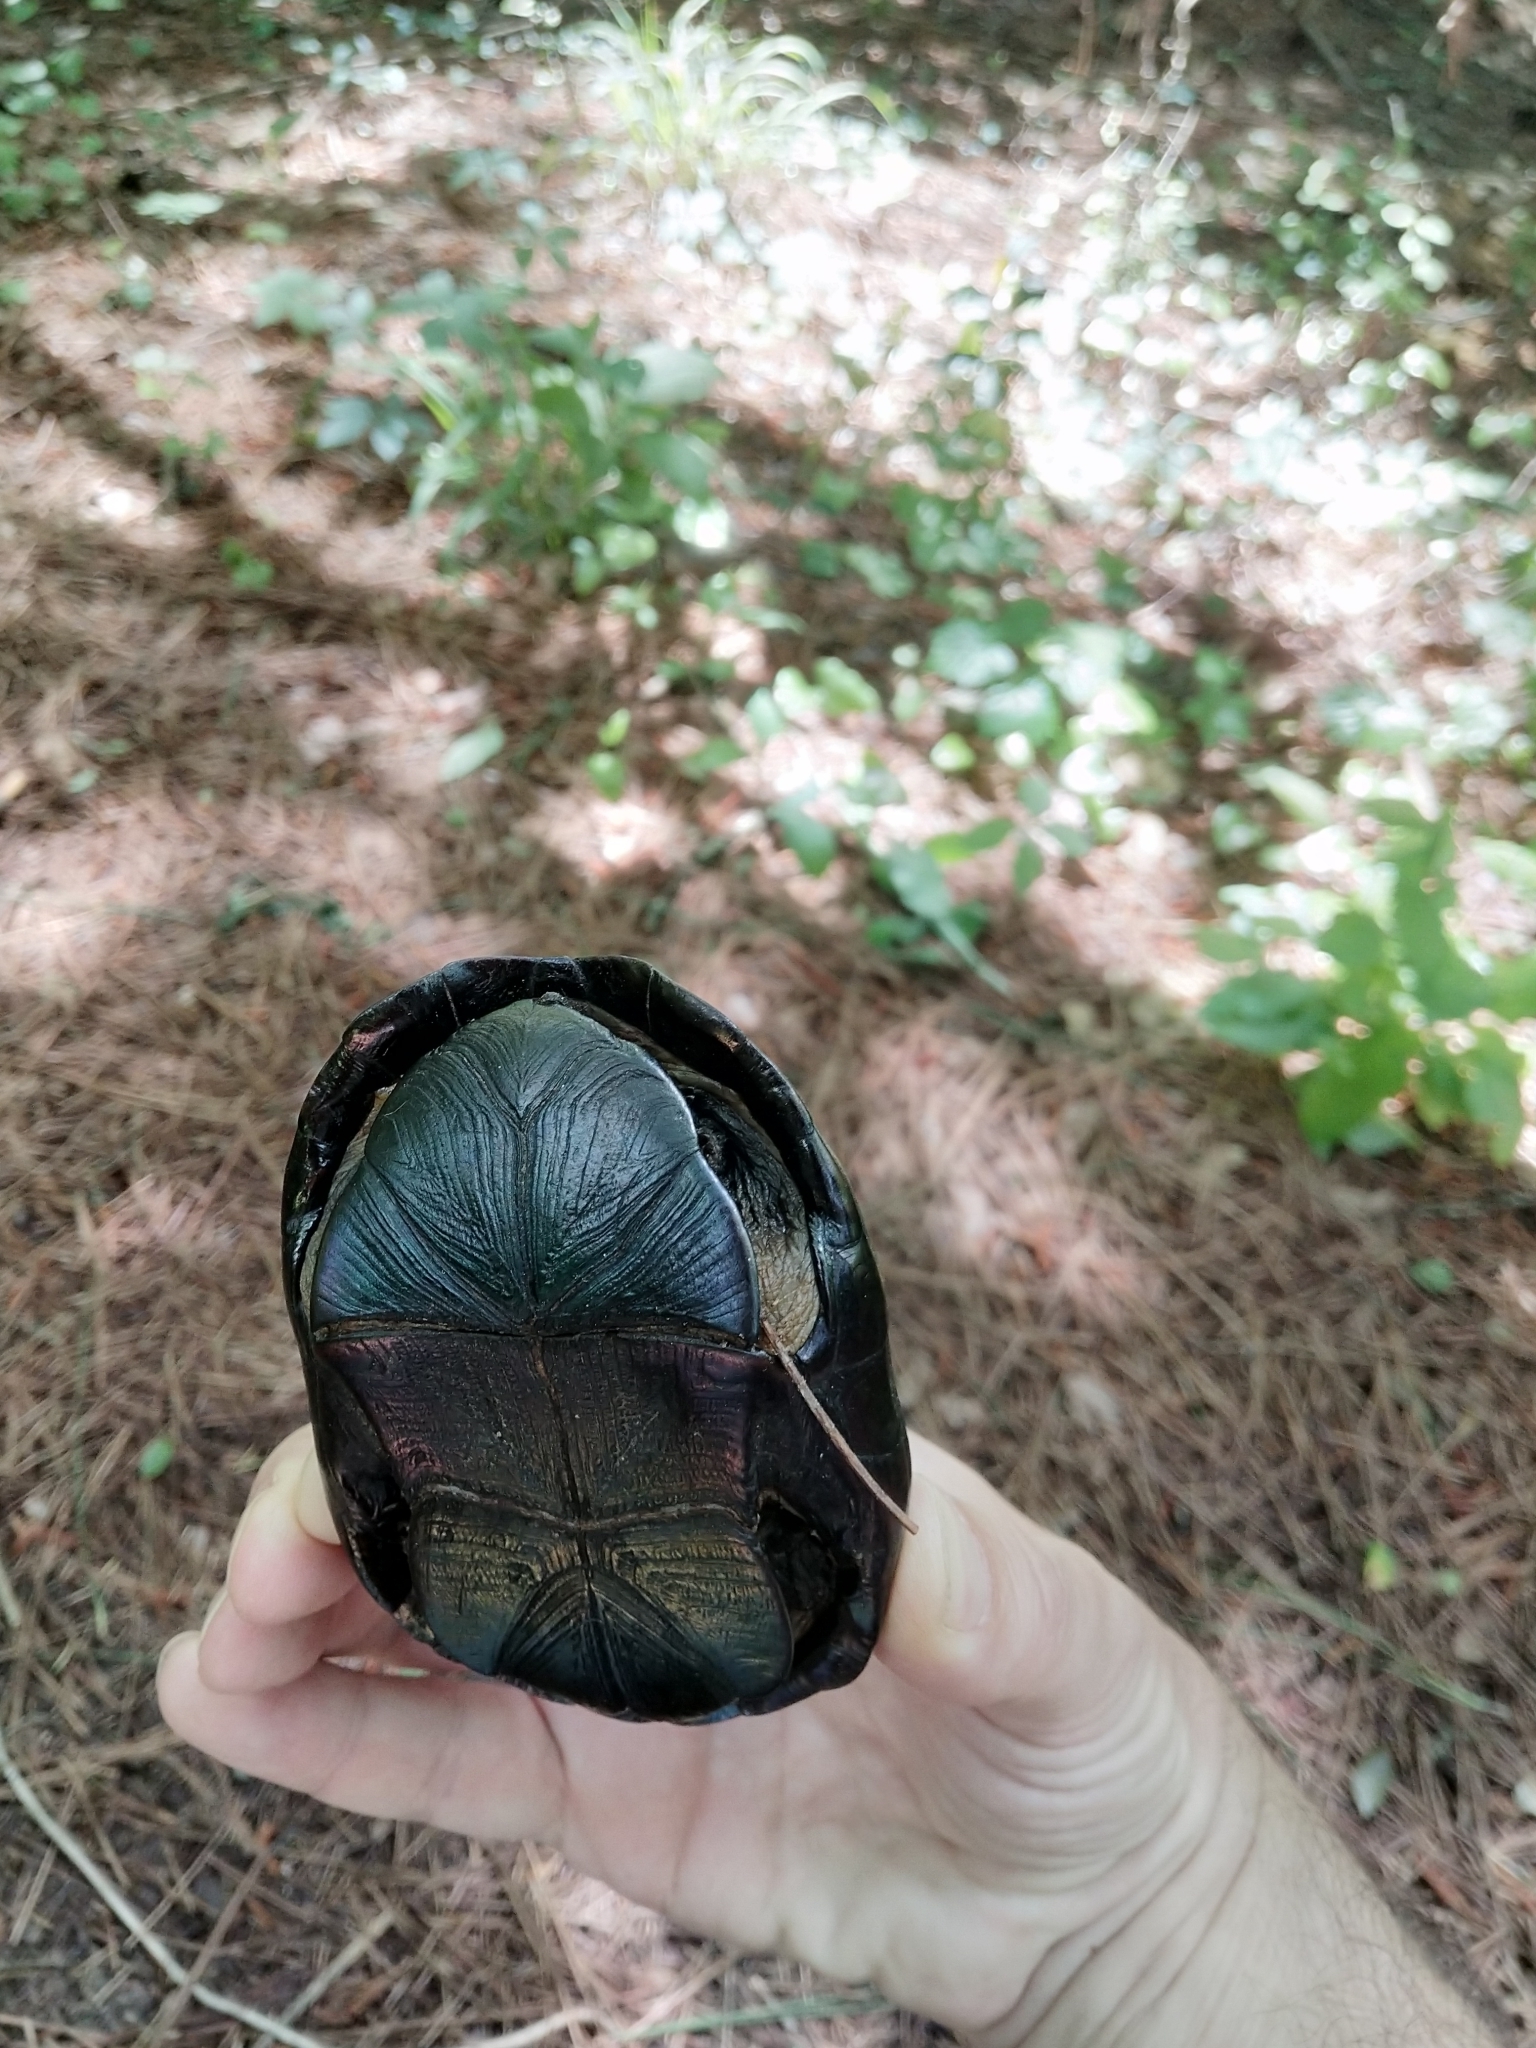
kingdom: Animalia
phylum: Chordata
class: Testudines
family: Kinosternidae
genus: Kinosternon
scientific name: Kinosternon subrubrum
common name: Eastern mud turtle
